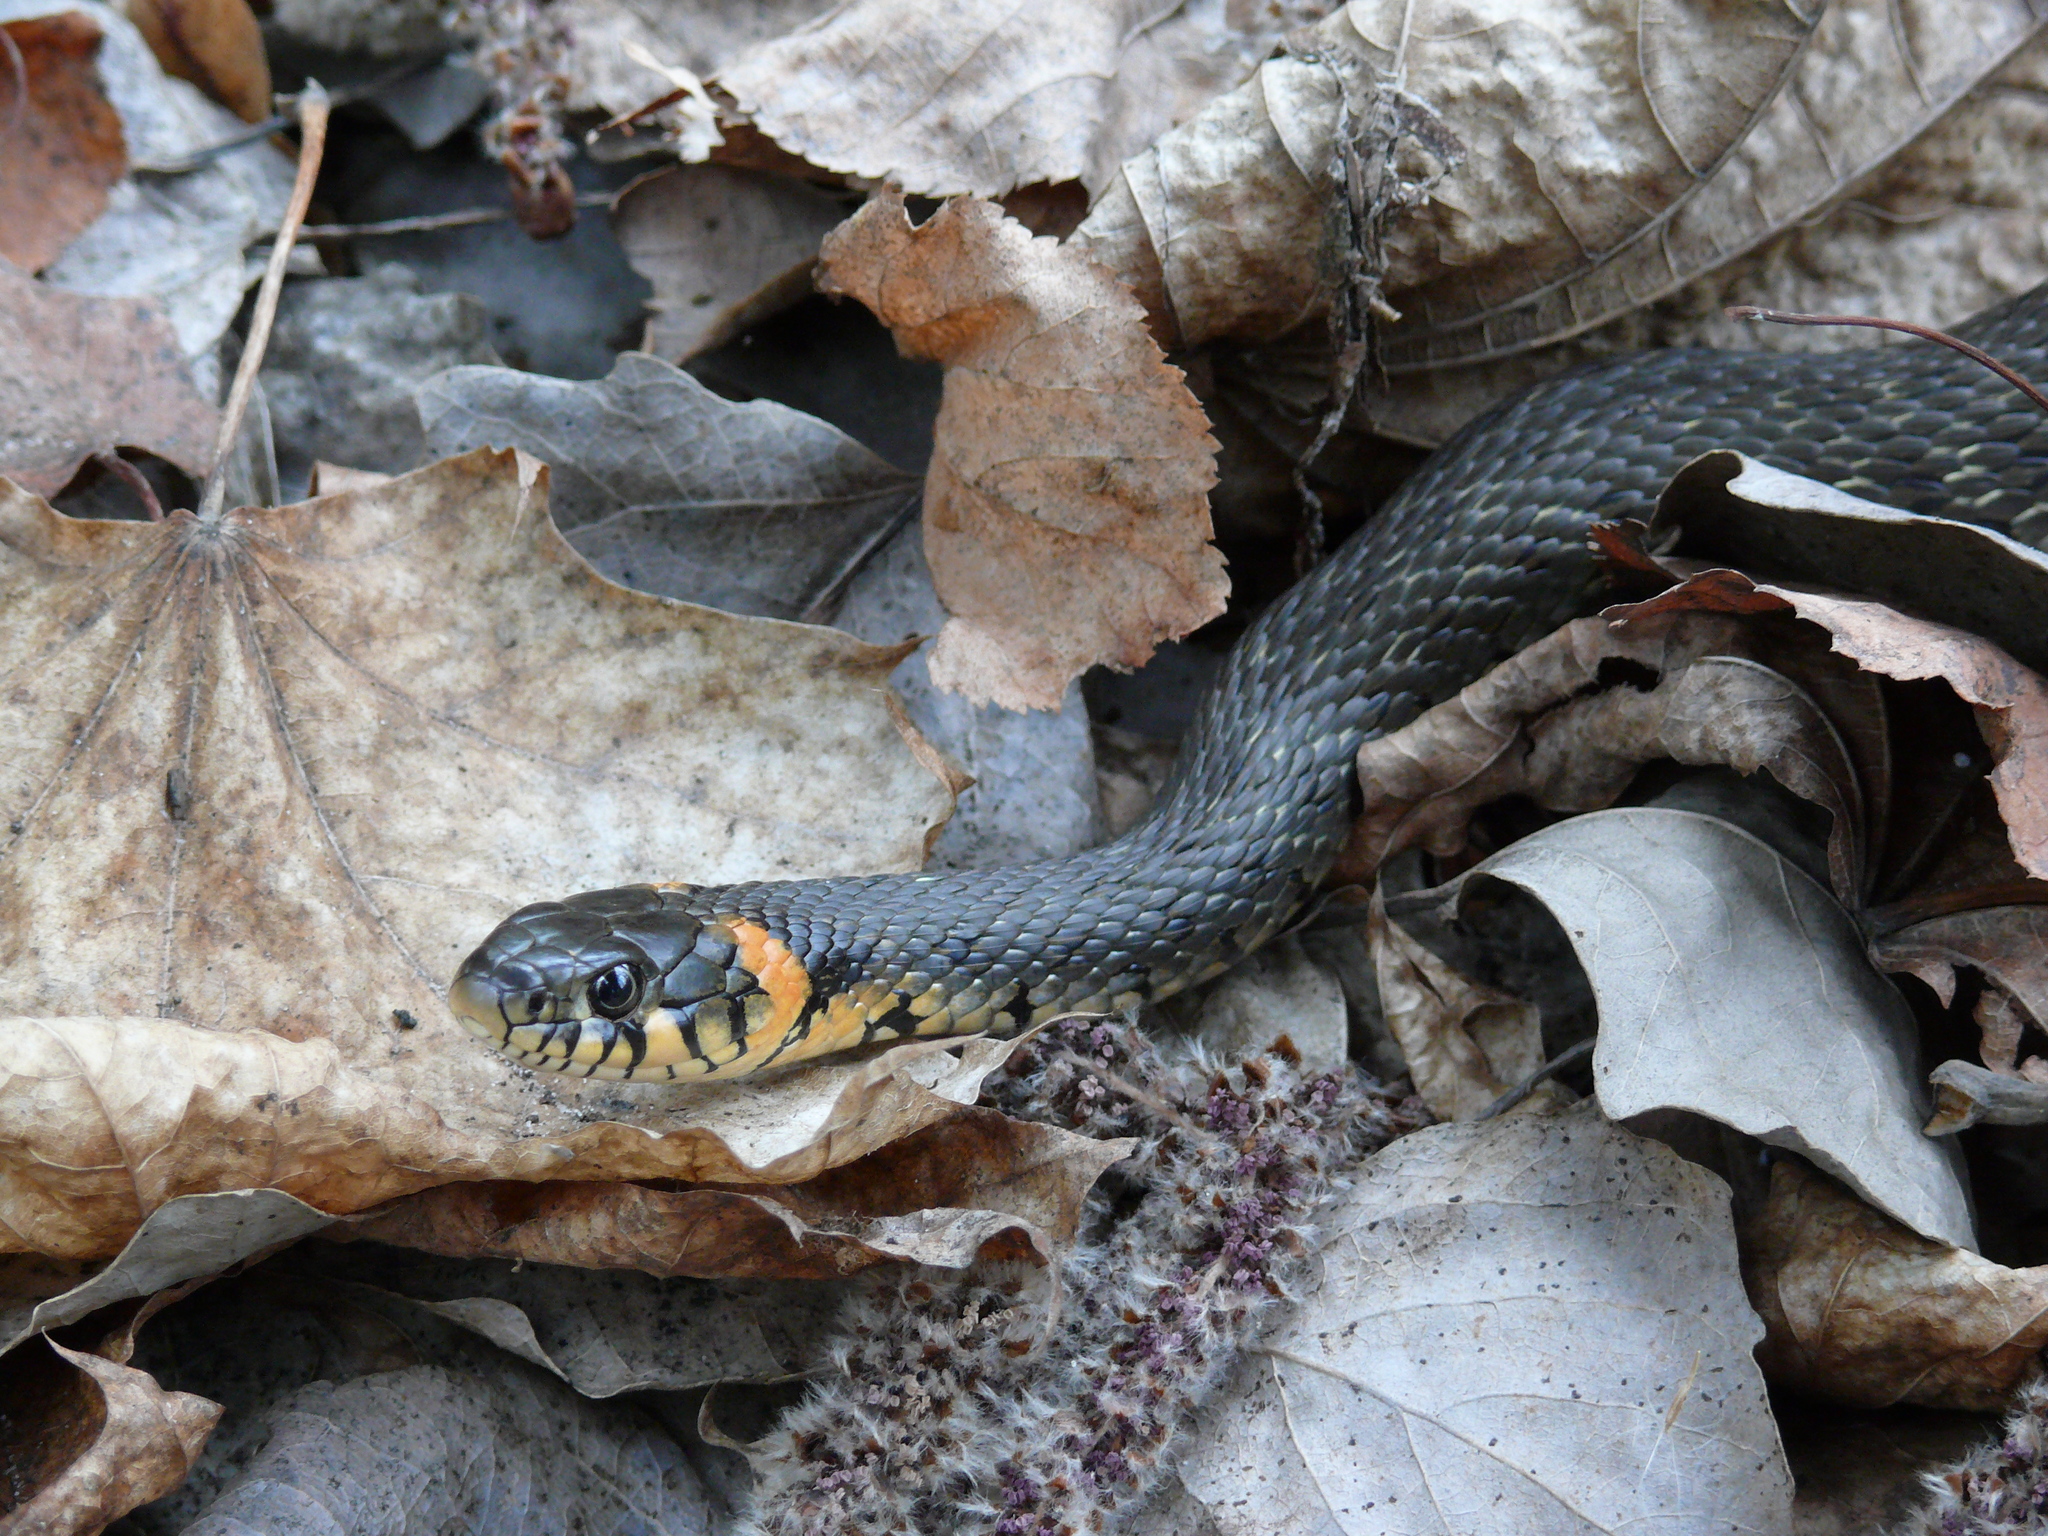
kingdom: Animalia
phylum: Chordata
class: Squamata
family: Colubridae
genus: Natrix
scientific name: Natrix natrix
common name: Grass snake
